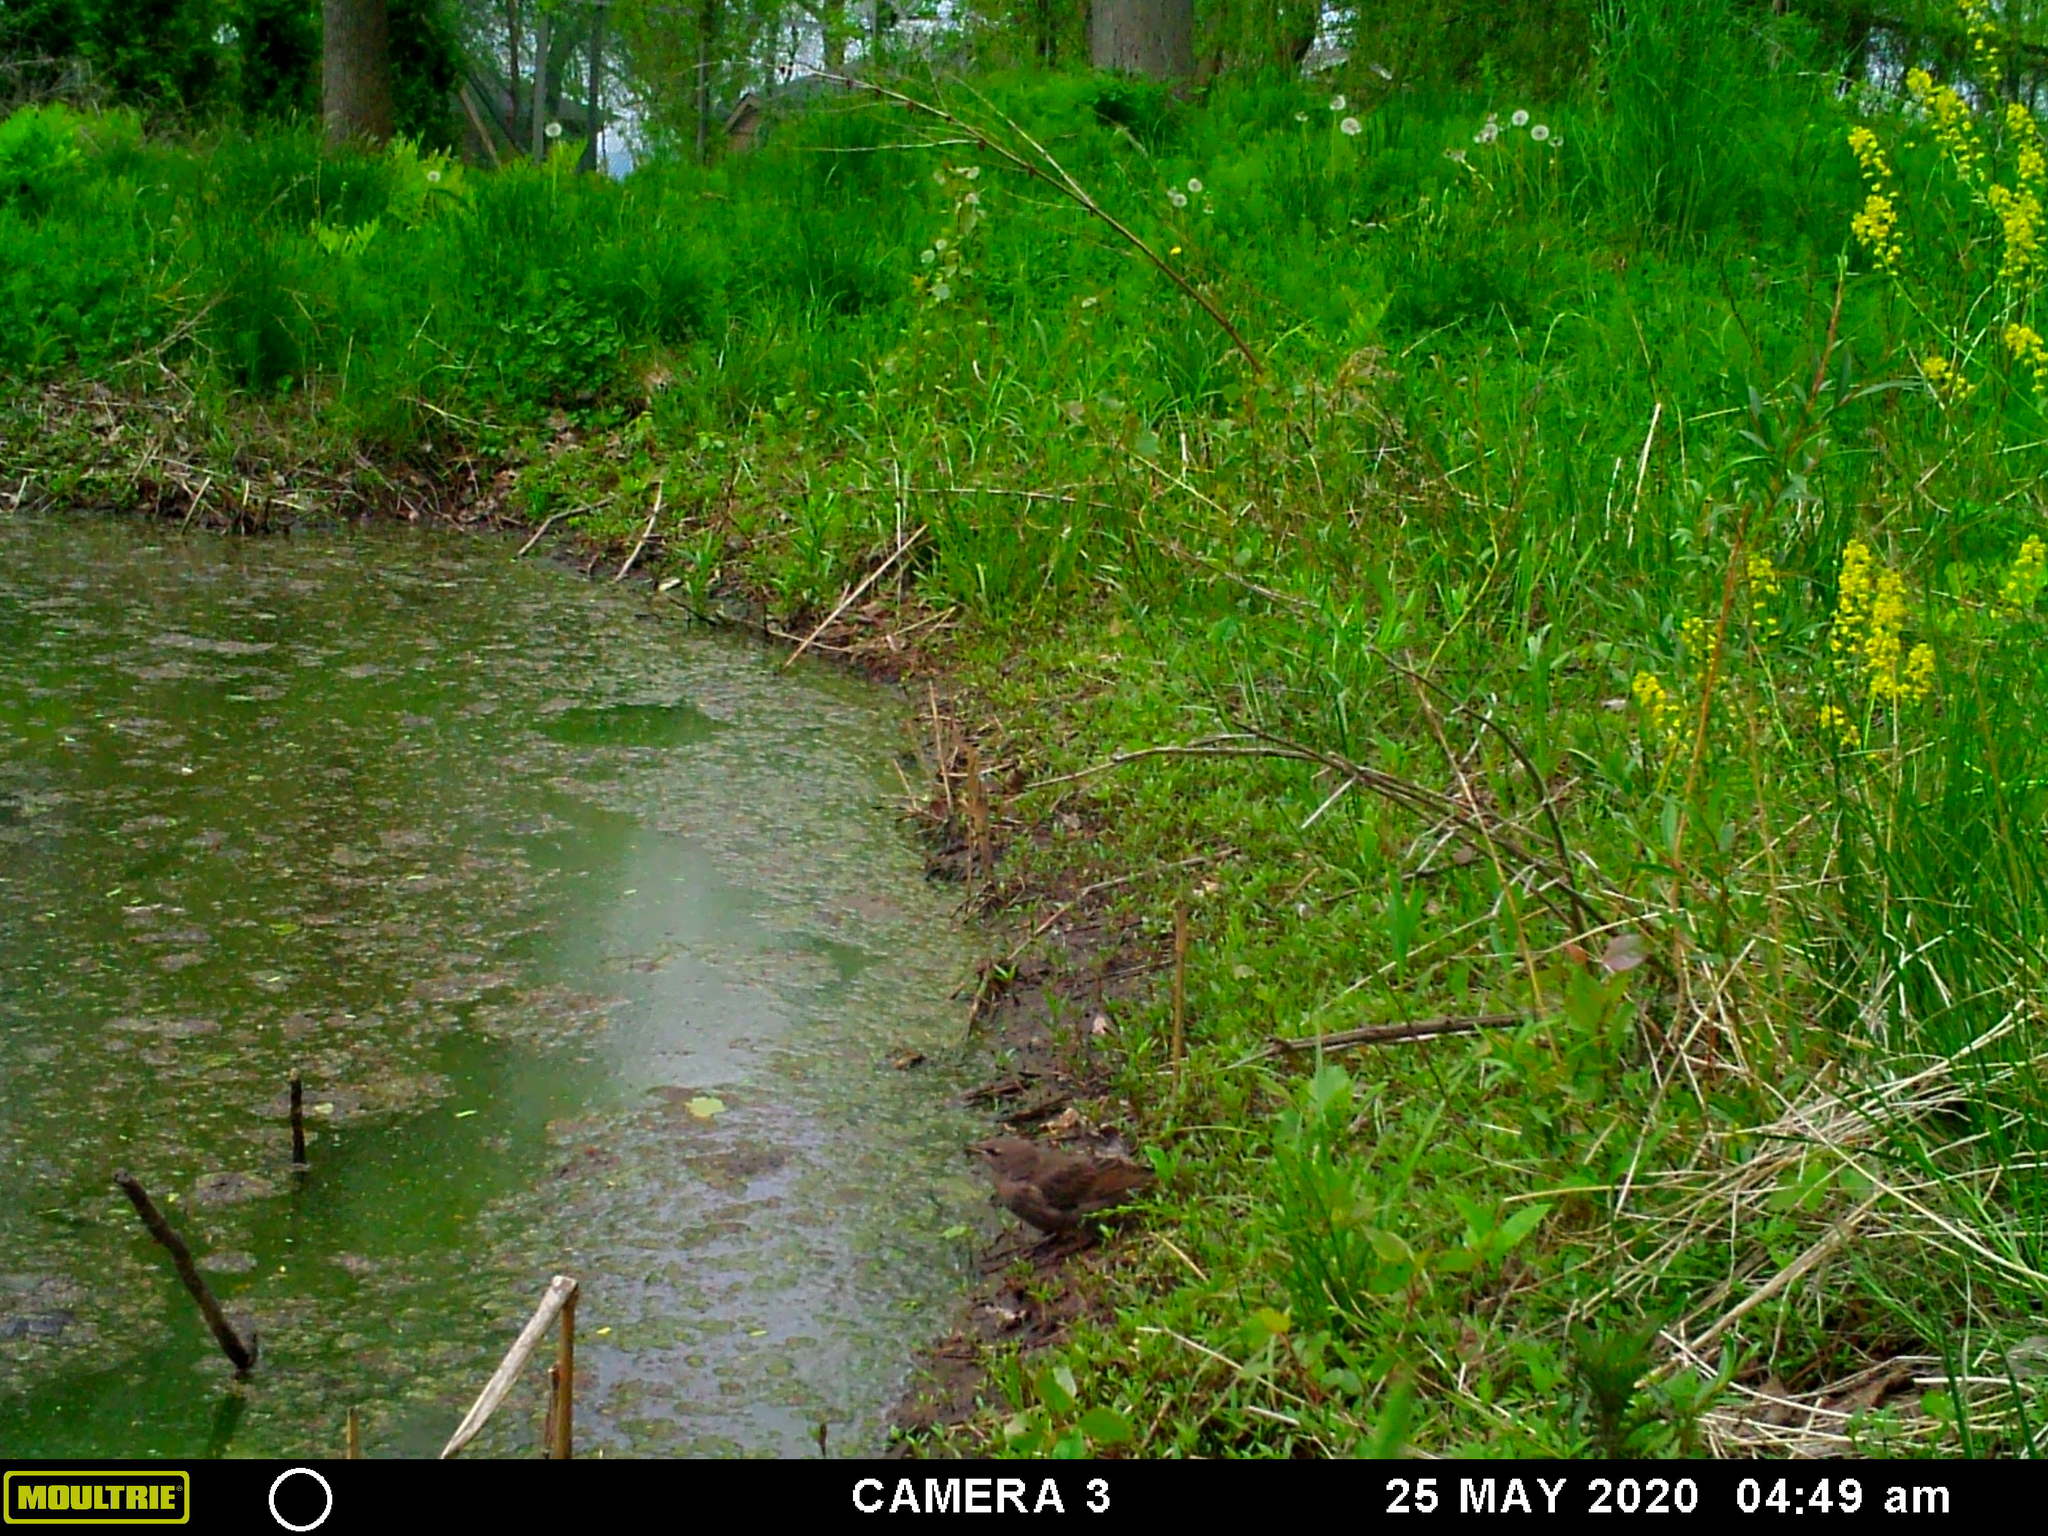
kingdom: Animalia
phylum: Chordata
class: Aves
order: Passeriformes
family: Sturnidae
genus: Sturnus
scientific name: Sturnus vulgaris
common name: Common starling
